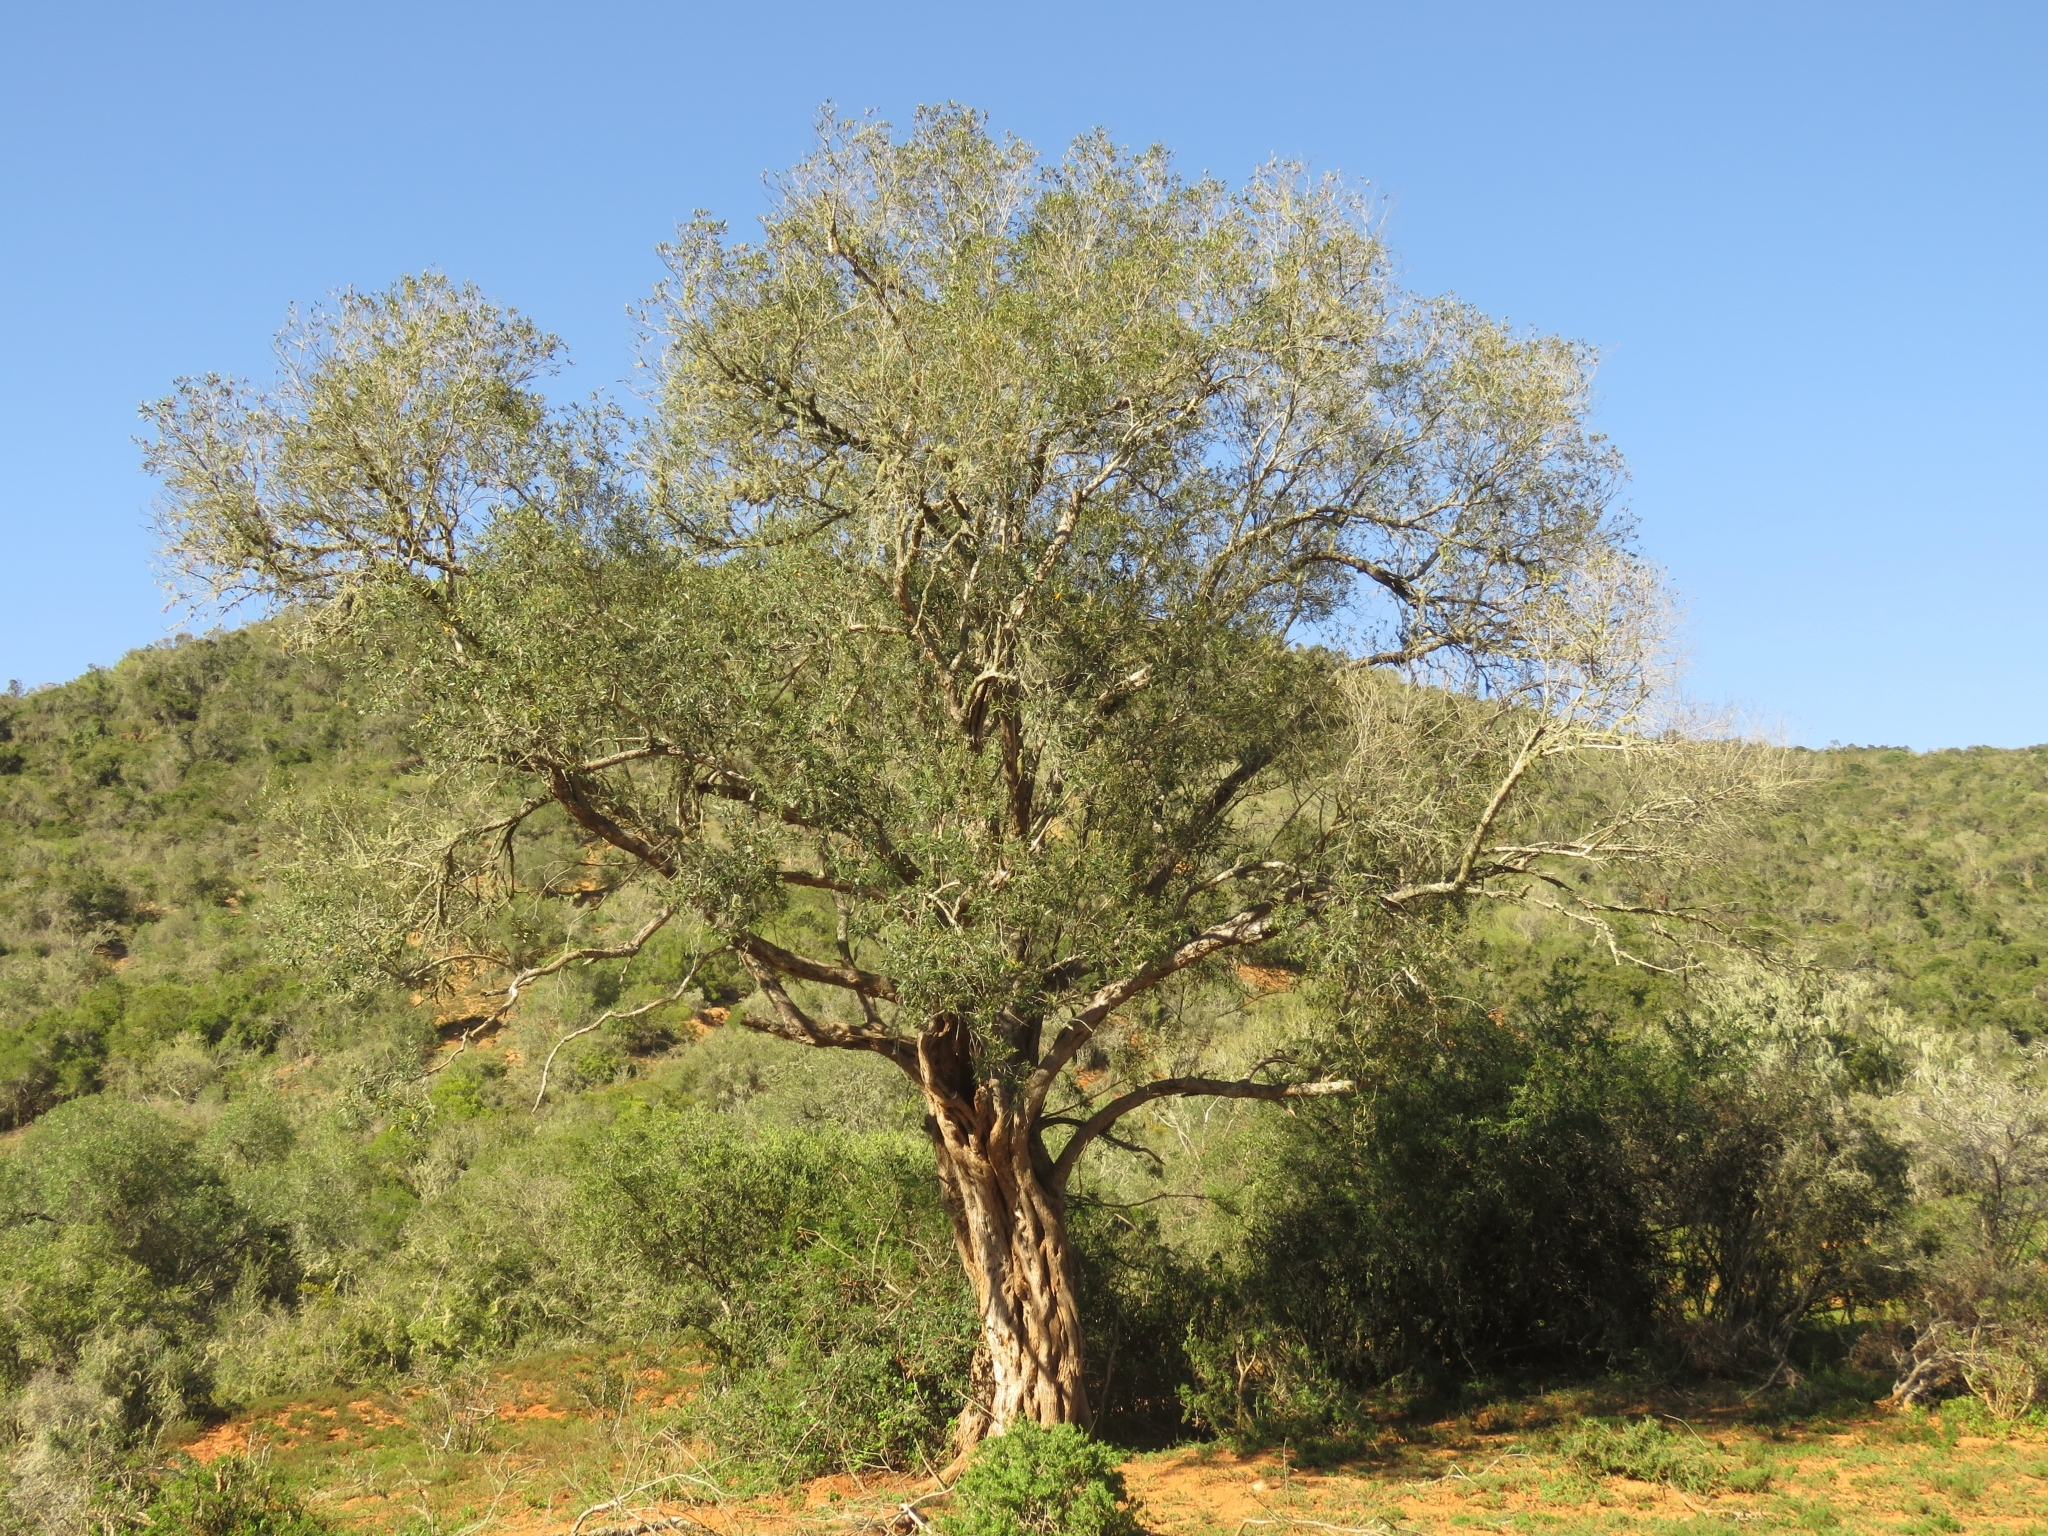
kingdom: Plantae
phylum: Tracheophyta
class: Magnoliopsida
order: Lamiales
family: Oleaceae
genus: Olea
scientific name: Olea europaea
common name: Olive
